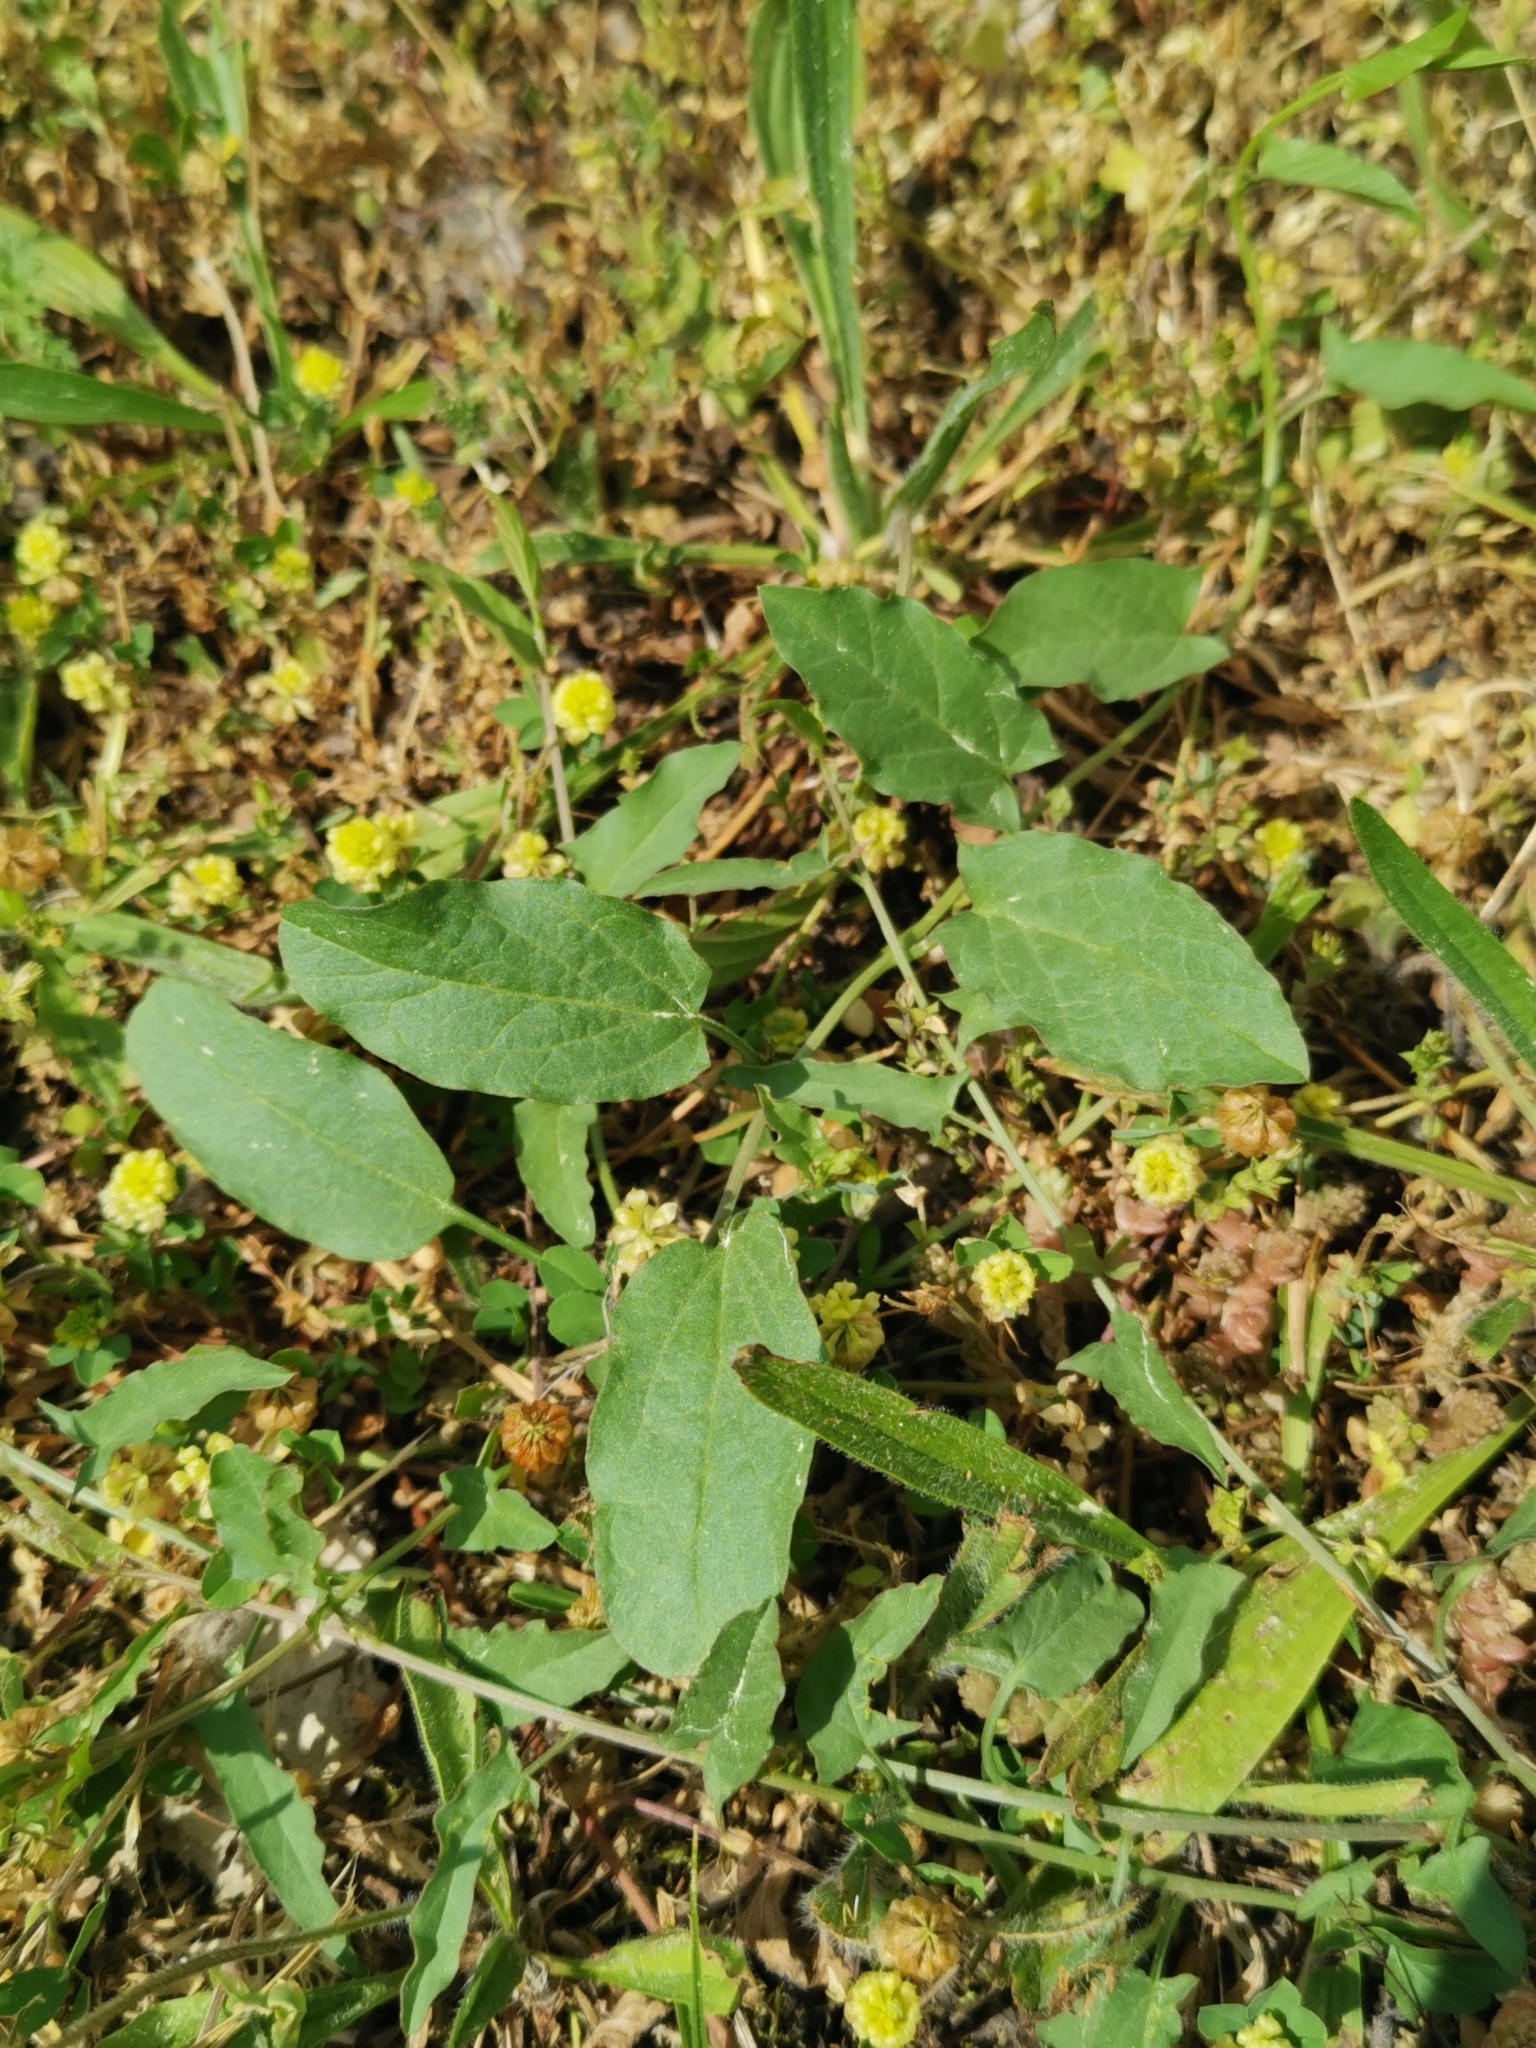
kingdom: Plantae
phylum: Tracheophyta
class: Magnoliopsida
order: Solanales
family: Convolvulaceae
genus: Convolvulus
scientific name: Convolvulus arvensis
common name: Field bindweed
